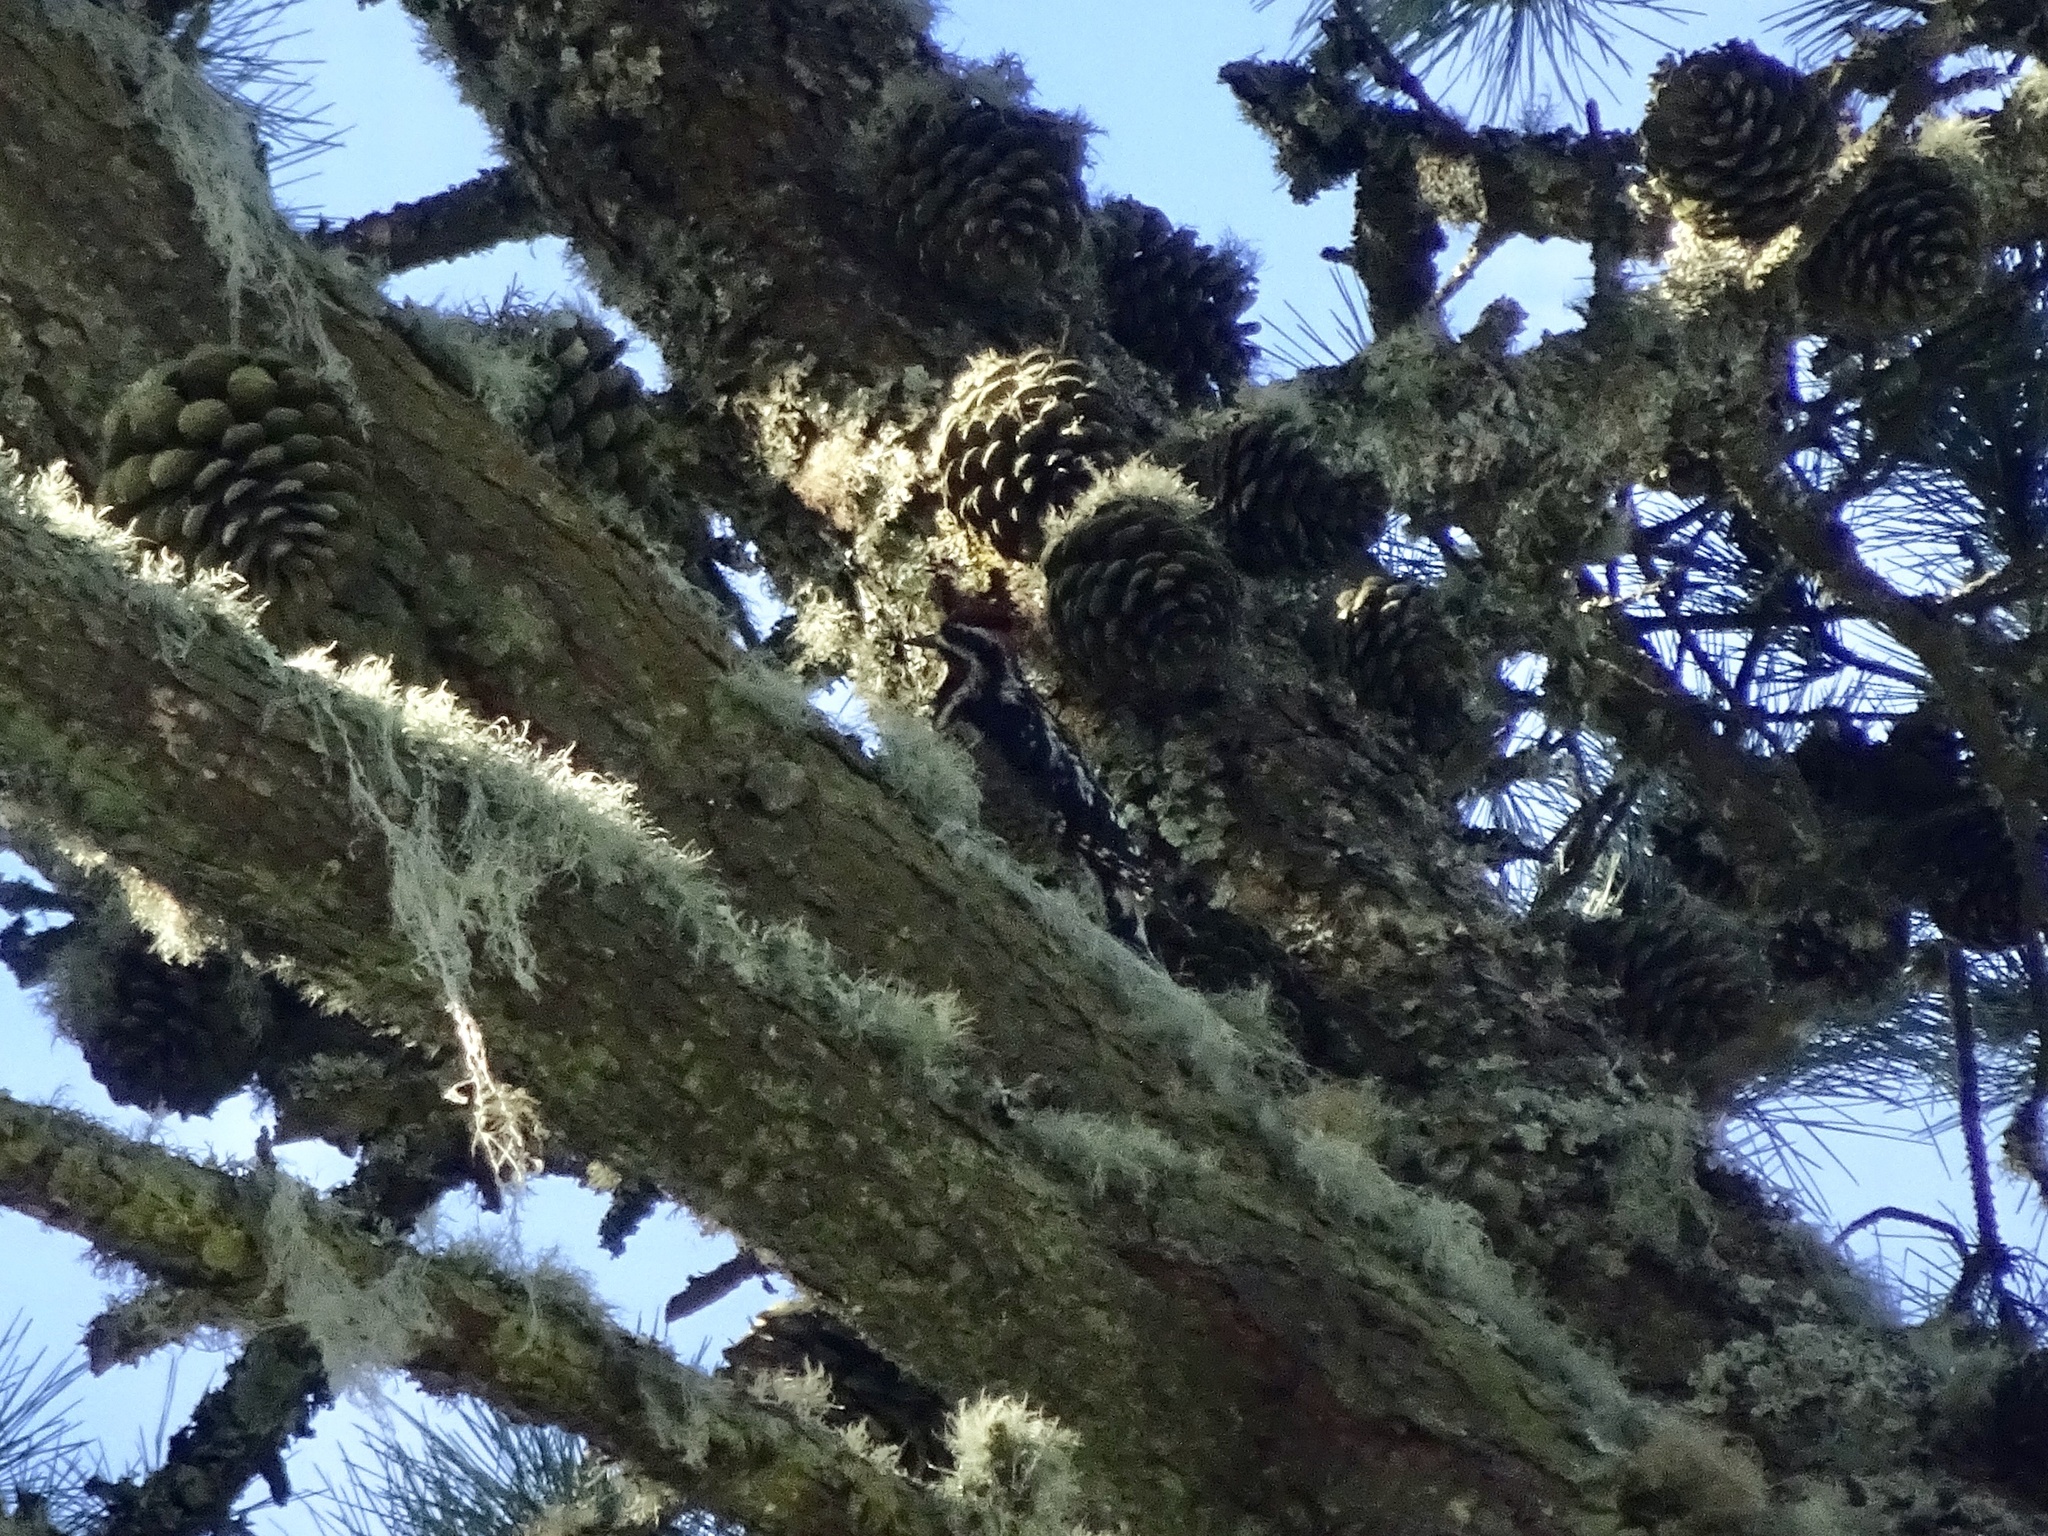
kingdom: Animalia
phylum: Chordata
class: Aves
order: Piciformes
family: Picidae
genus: Sphyrapicus
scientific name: Sphyrapicus nuchalis
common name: Red-naped sapsucker
